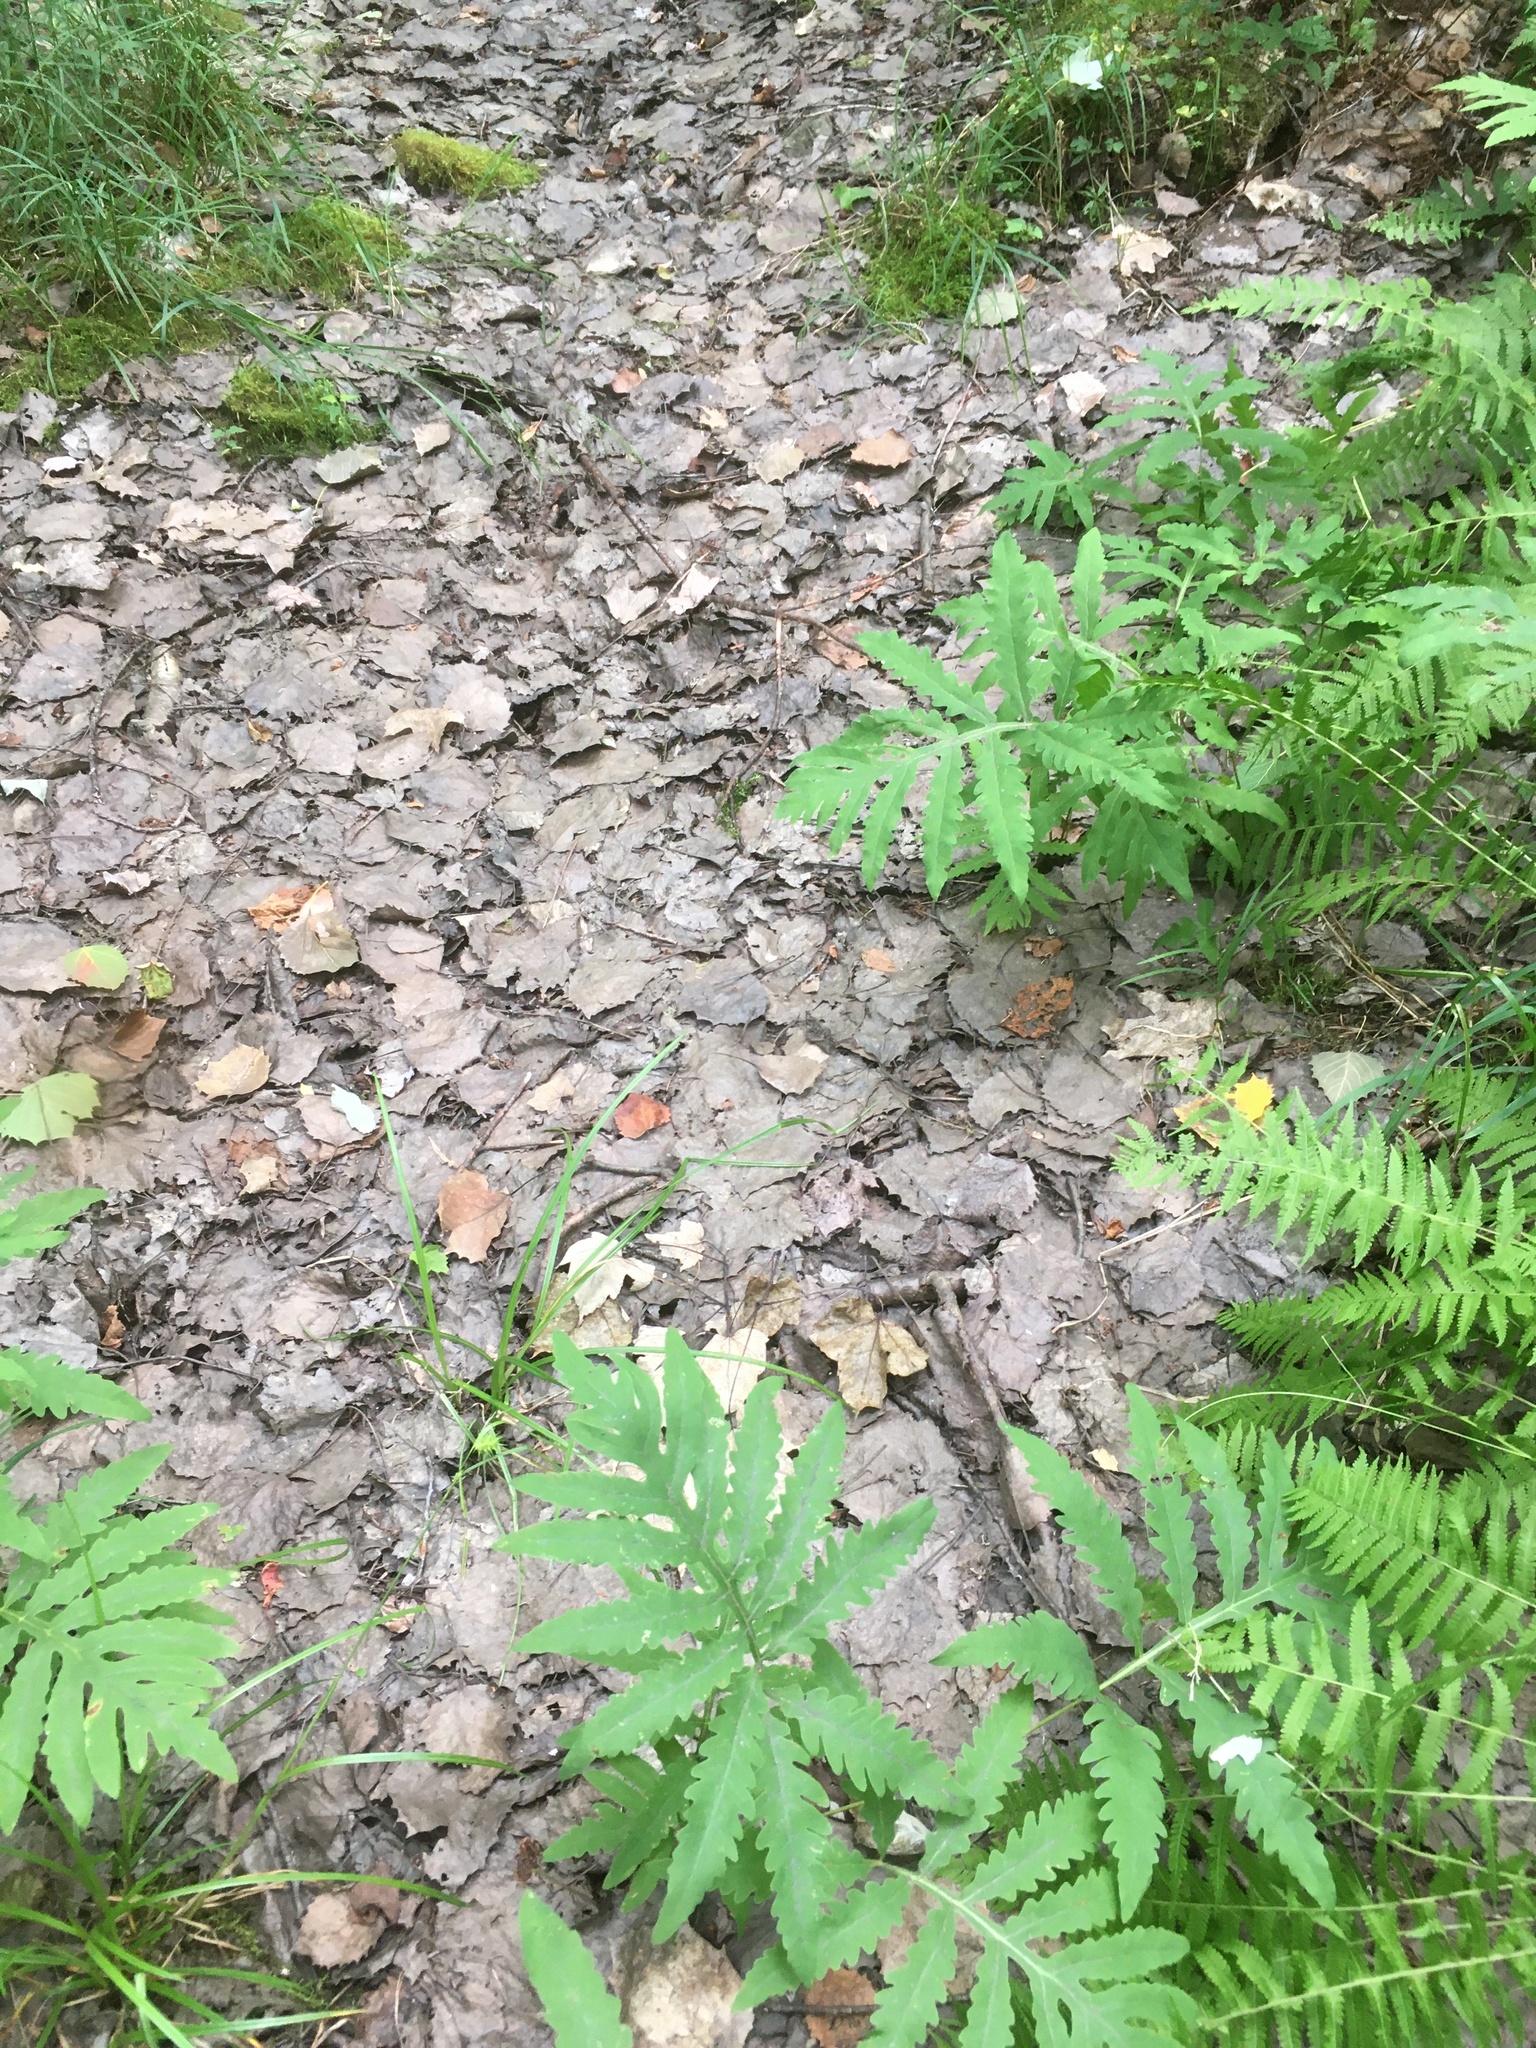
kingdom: Plantae
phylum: Tracheophyta
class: Polypodiopsida
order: Polypodiales
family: Onocleaceae
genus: Onoclea
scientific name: Onoclea sensibilis
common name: Sensitive fern
